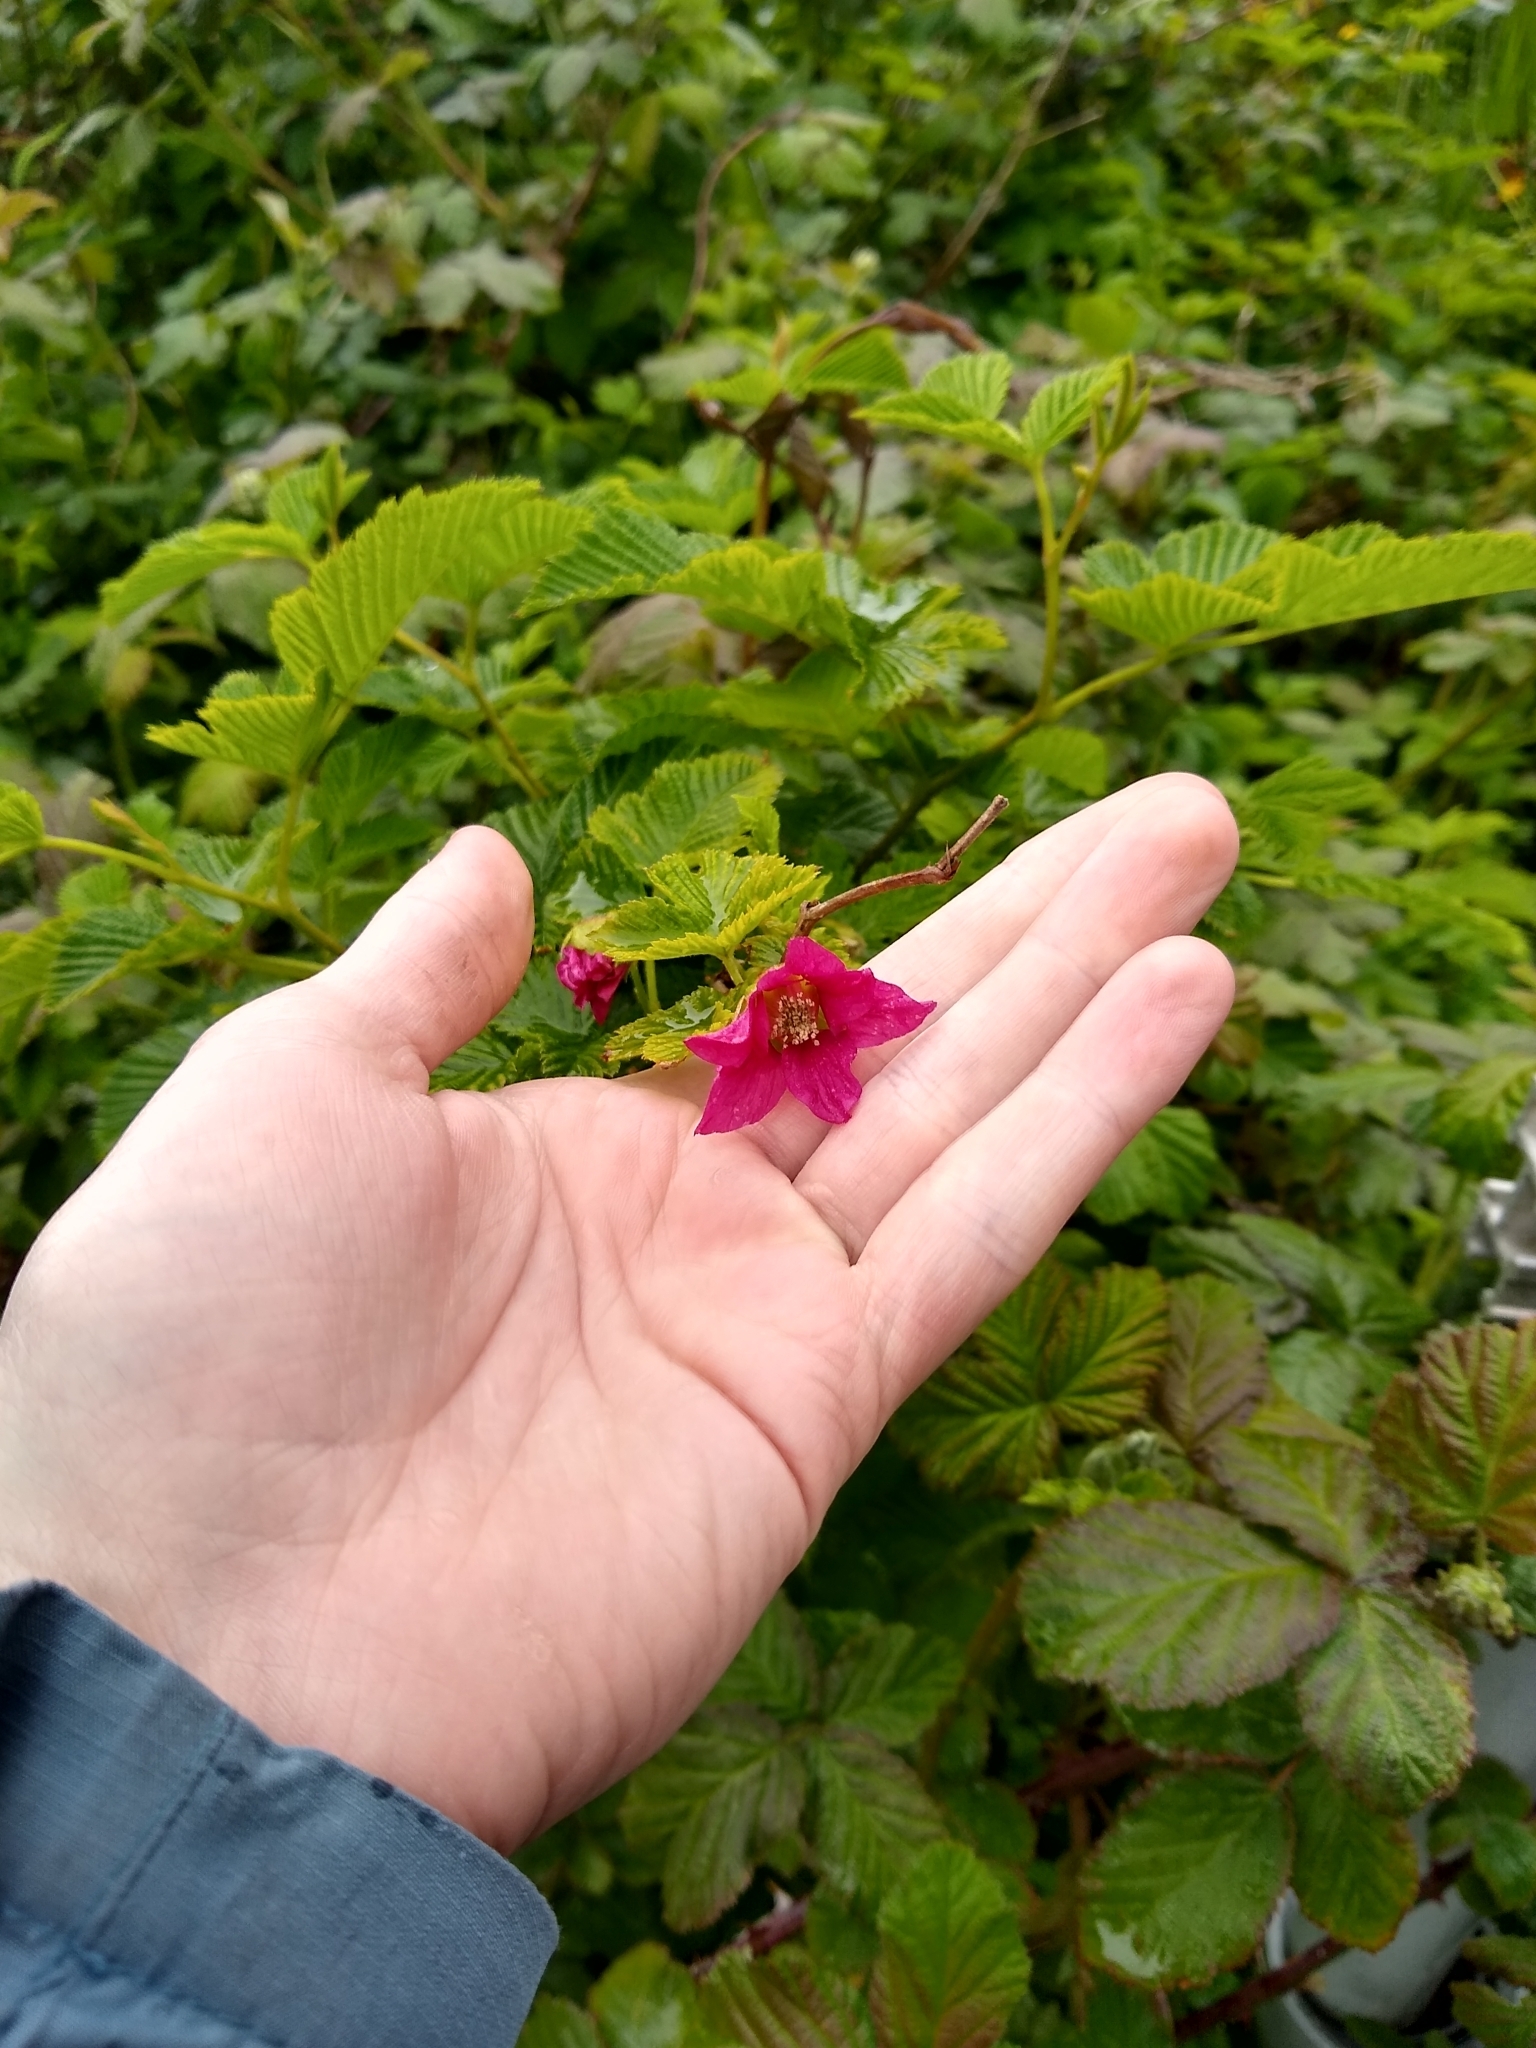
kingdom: Plantae
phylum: Tracheophyta
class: Magnoliopsida
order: Rosales
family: Rosaceae
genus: Rubus
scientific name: Rubus spectabilis
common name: Salmonberry
